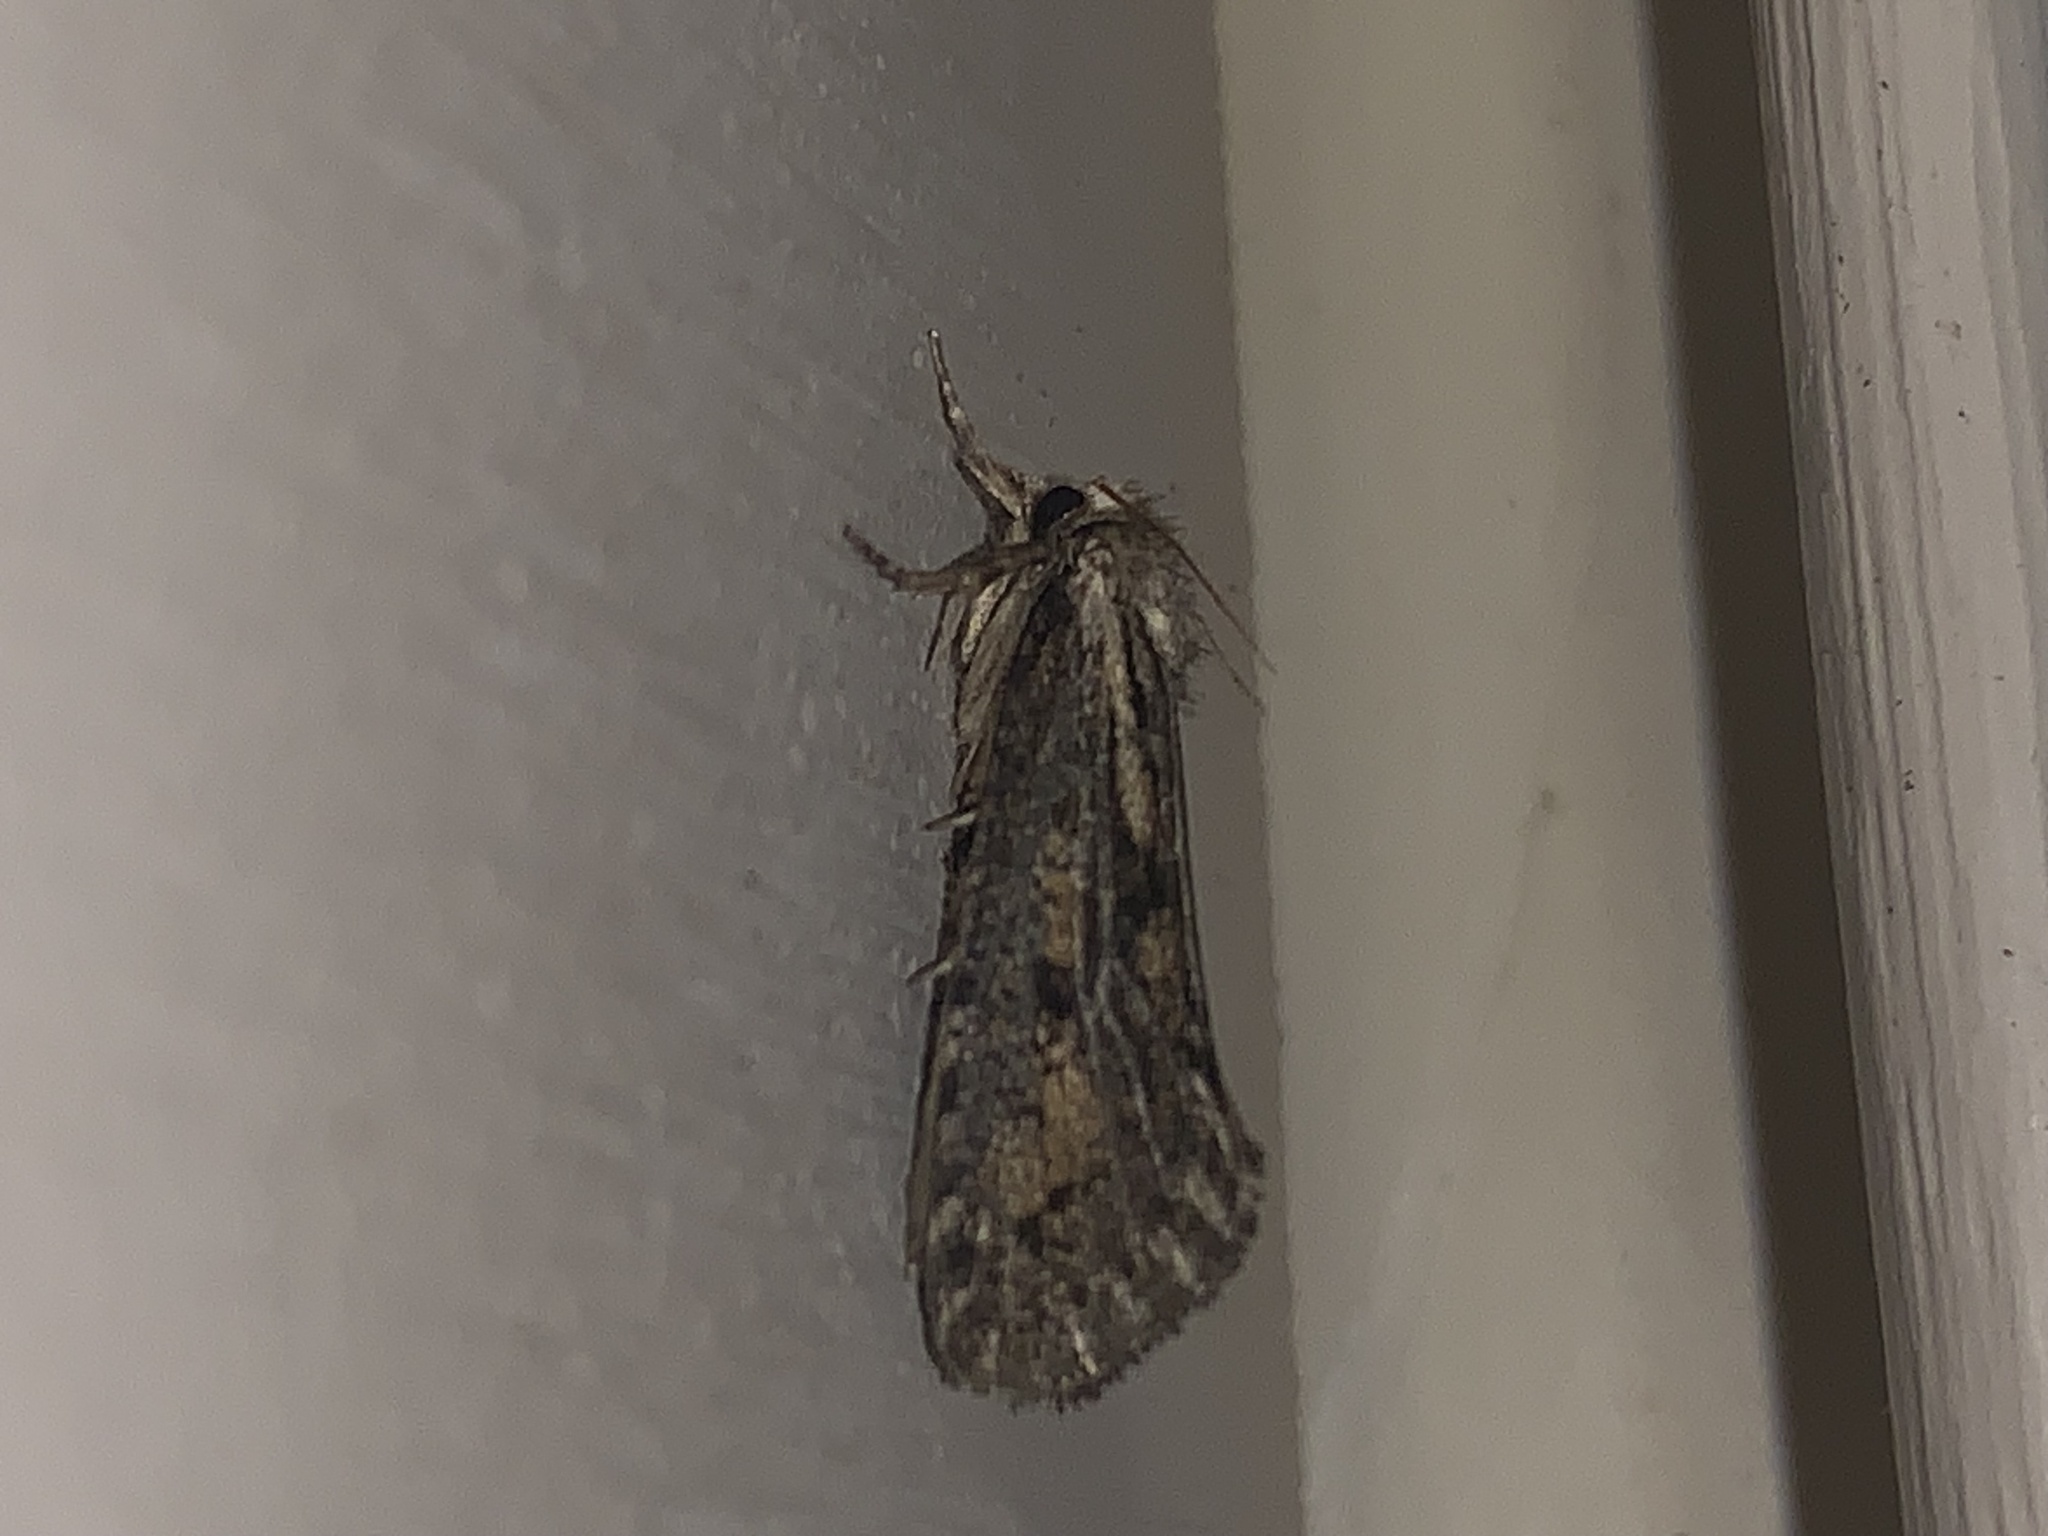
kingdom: Animalia
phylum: Arthropoda
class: Insecta
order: Lepidoptera
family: Tineidae
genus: Acrolophus
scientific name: Acrolophus popeanella
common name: Clemens' grass tubeworm moth
